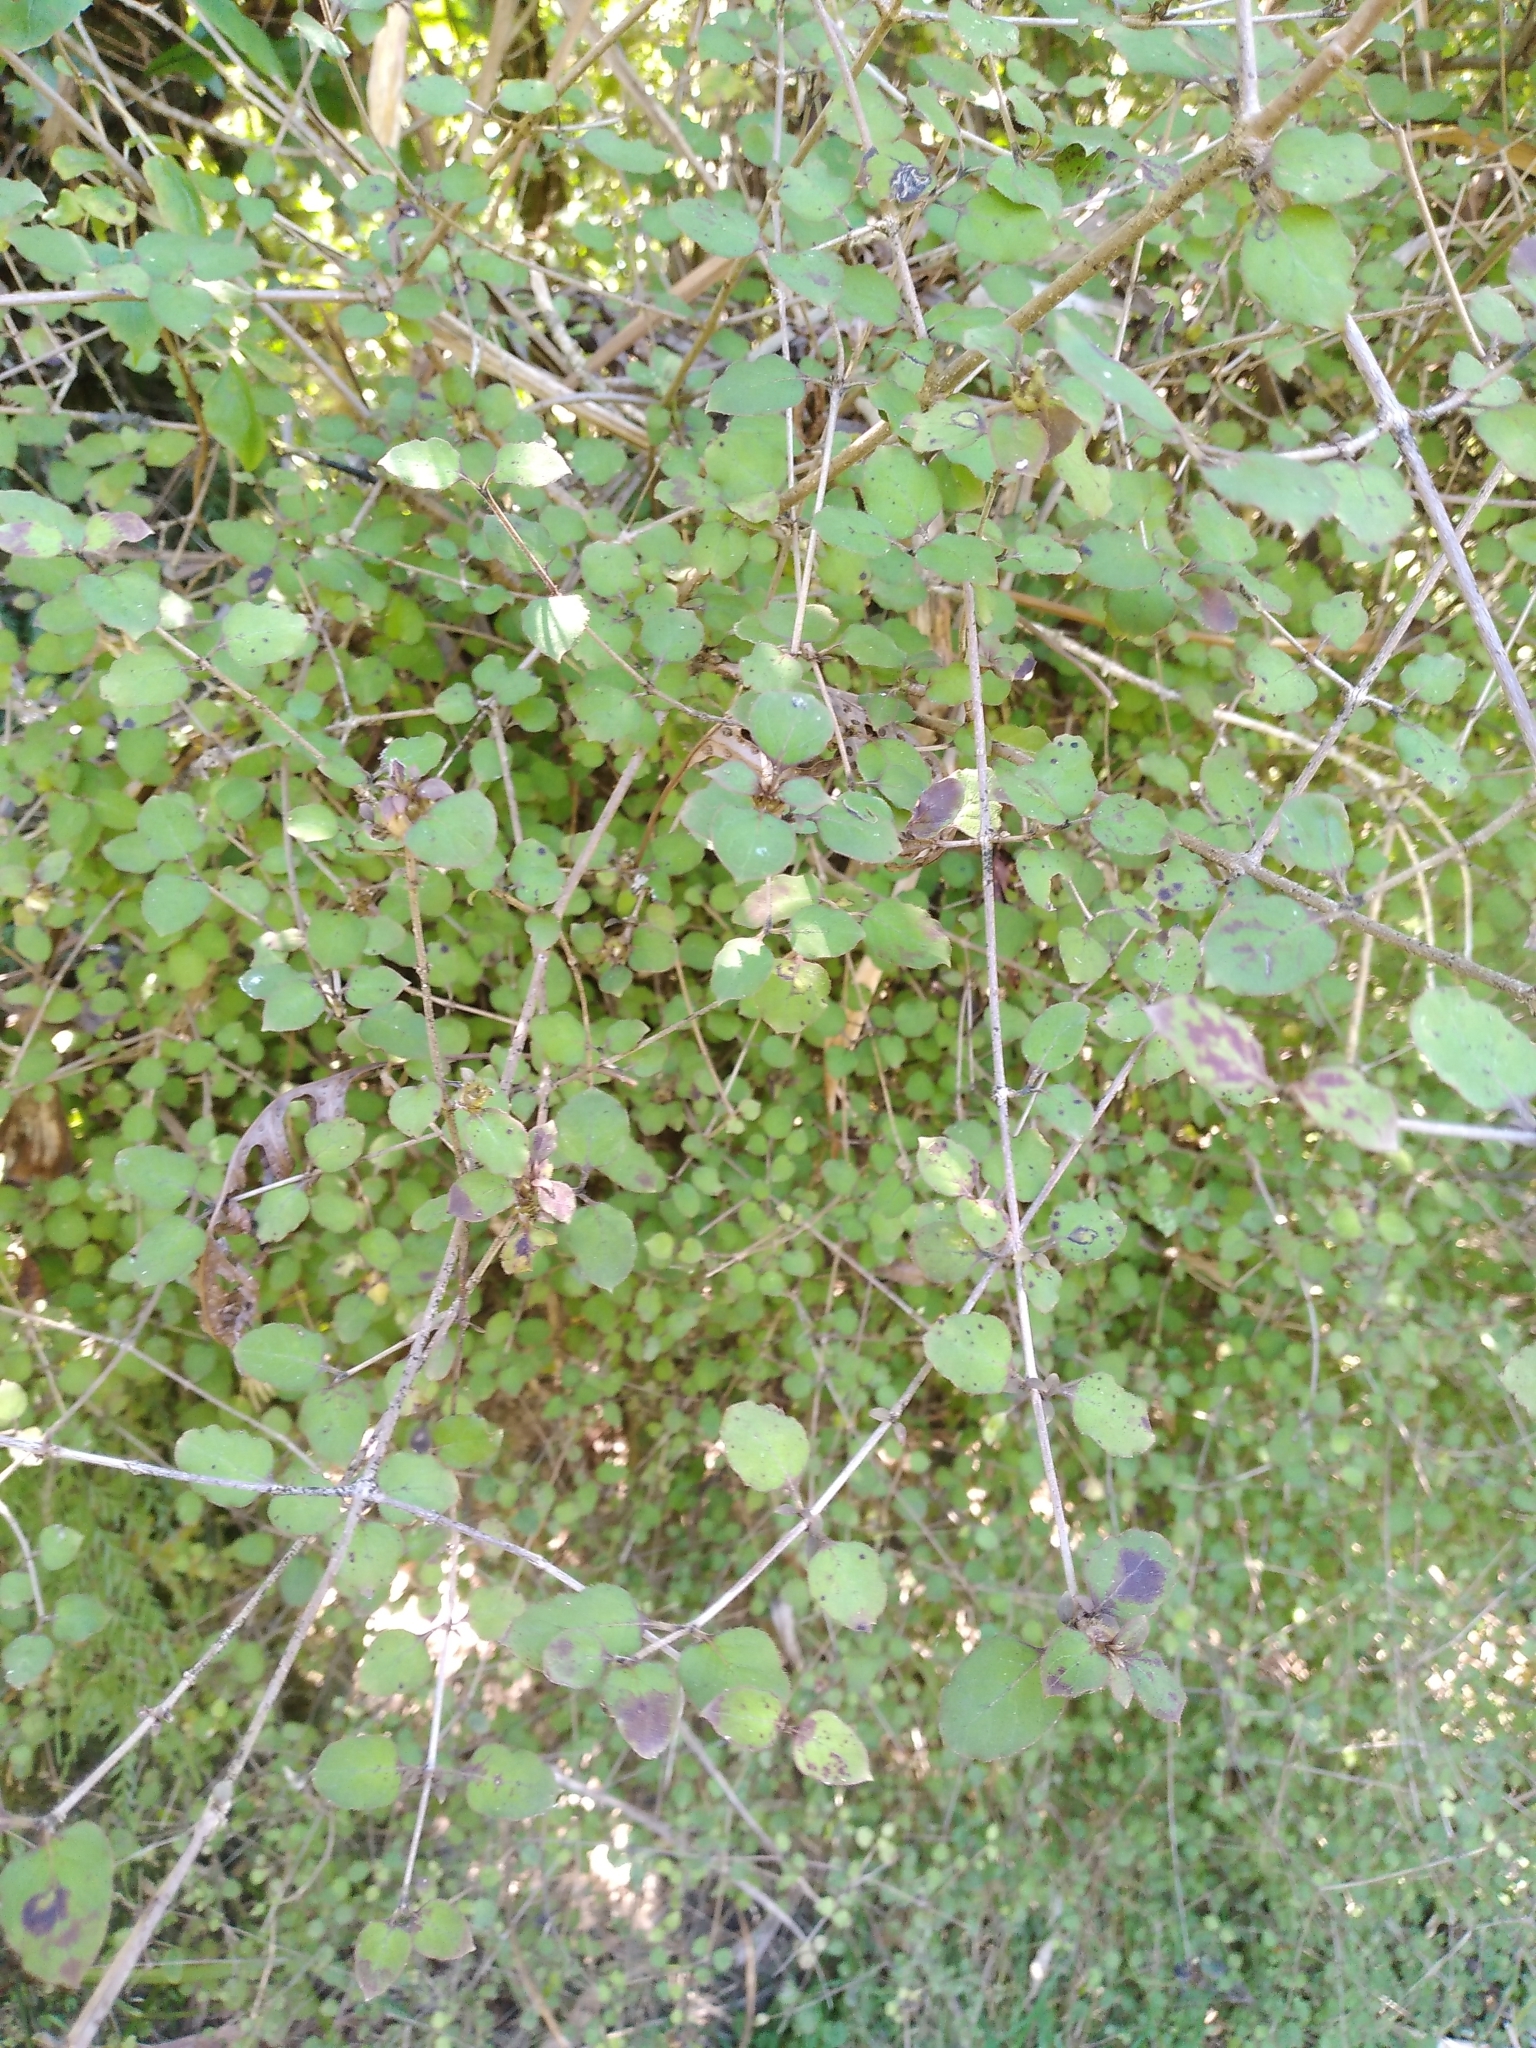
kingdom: Plantae
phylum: Tracheophyta
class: Magnoliopsida
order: Gentianales
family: Rubiaceae
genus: Coprosma
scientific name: Coprosma rotundifolia
